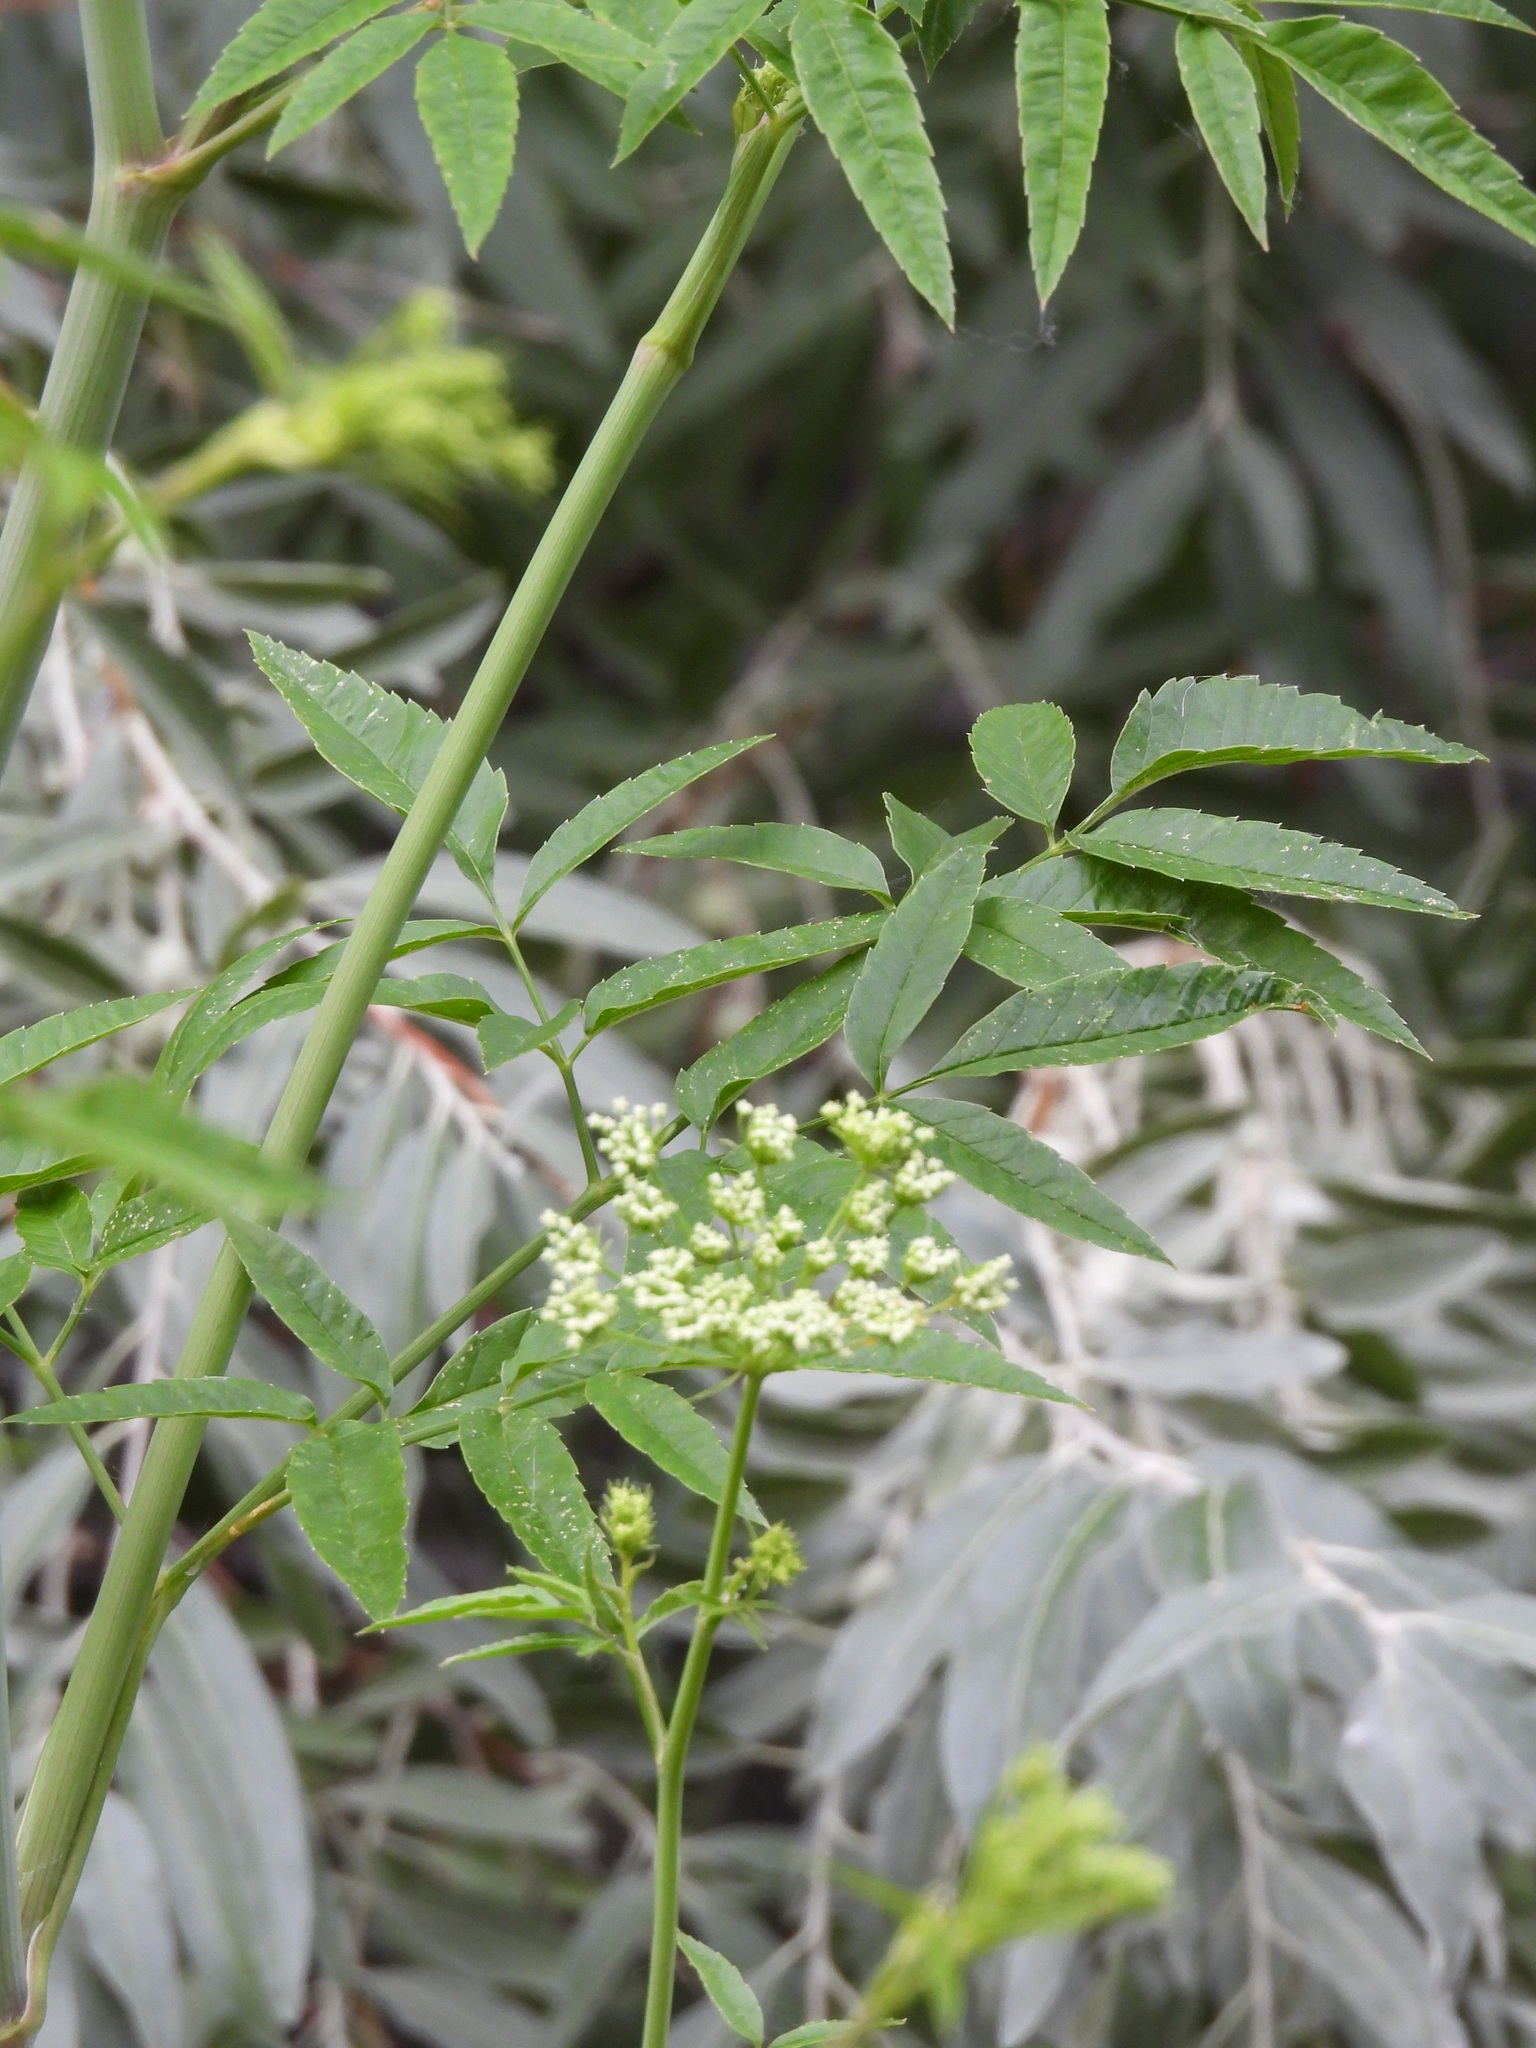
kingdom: Plantae
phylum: Tracheophyta
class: Magnoliopsida
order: Apiales
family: Apiaceae
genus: Cicuta
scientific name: Cicuta maculata
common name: Spotted cowbane
